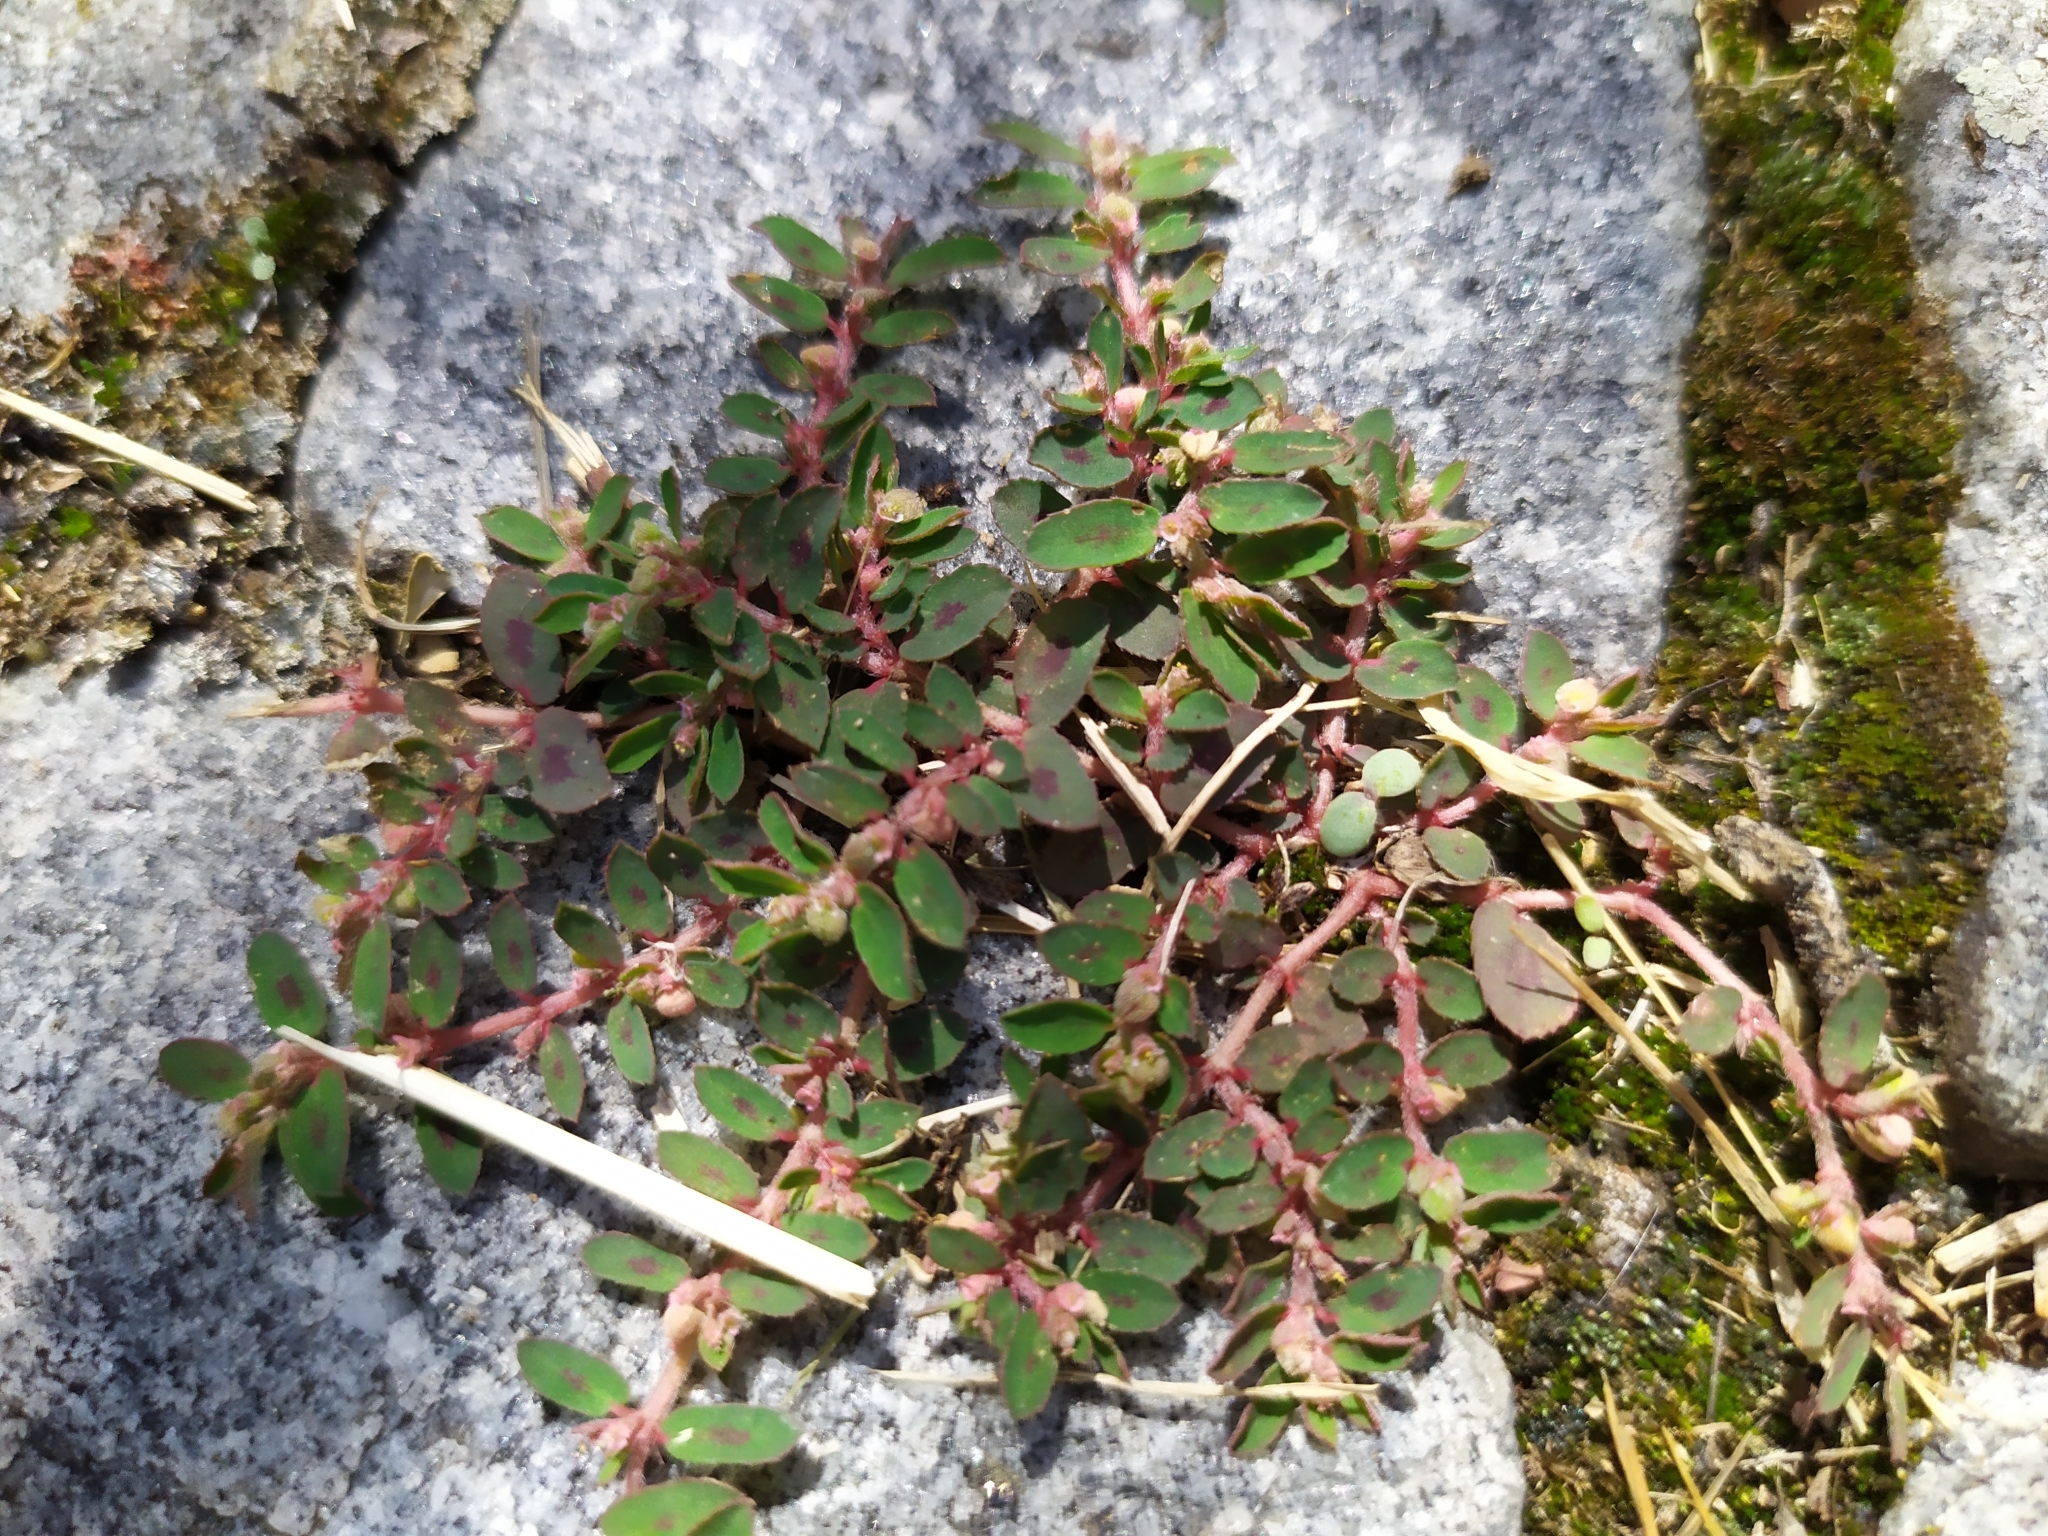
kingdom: Plantae
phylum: Tracheophyta
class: Magnoliopsida
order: Malpighiales
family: Euphorbiaceae
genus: Euphorbia
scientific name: Euphorbia maculata
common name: Spotted spurge
